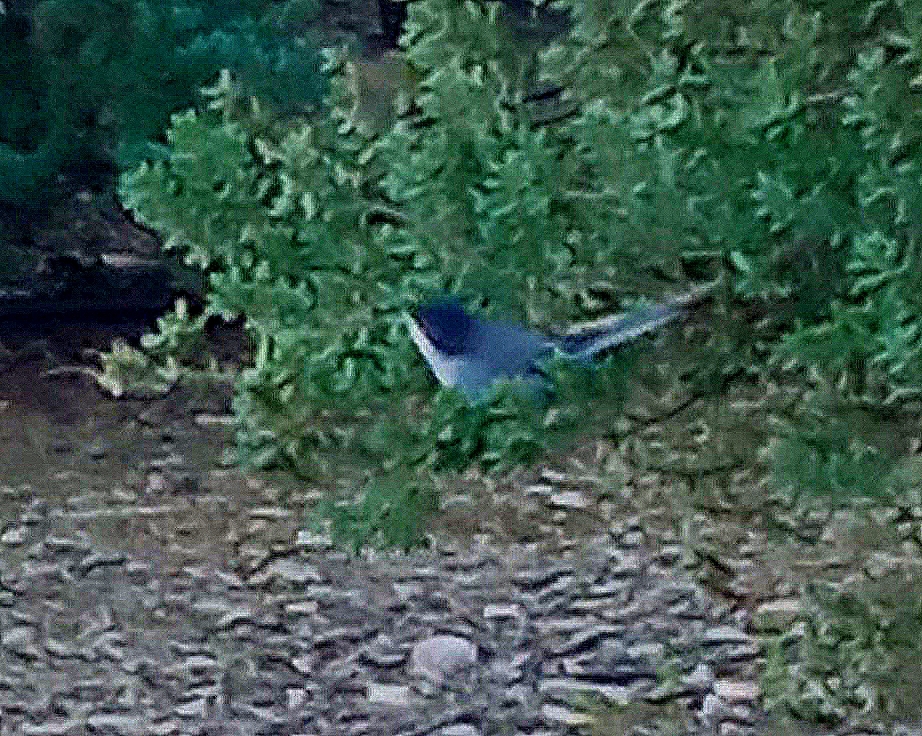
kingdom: Animalia
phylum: Chordata
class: Aves
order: Passeriformes
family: Sylviidae
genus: Curruca
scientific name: Curruca melanocephala
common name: Sardinian warbler
